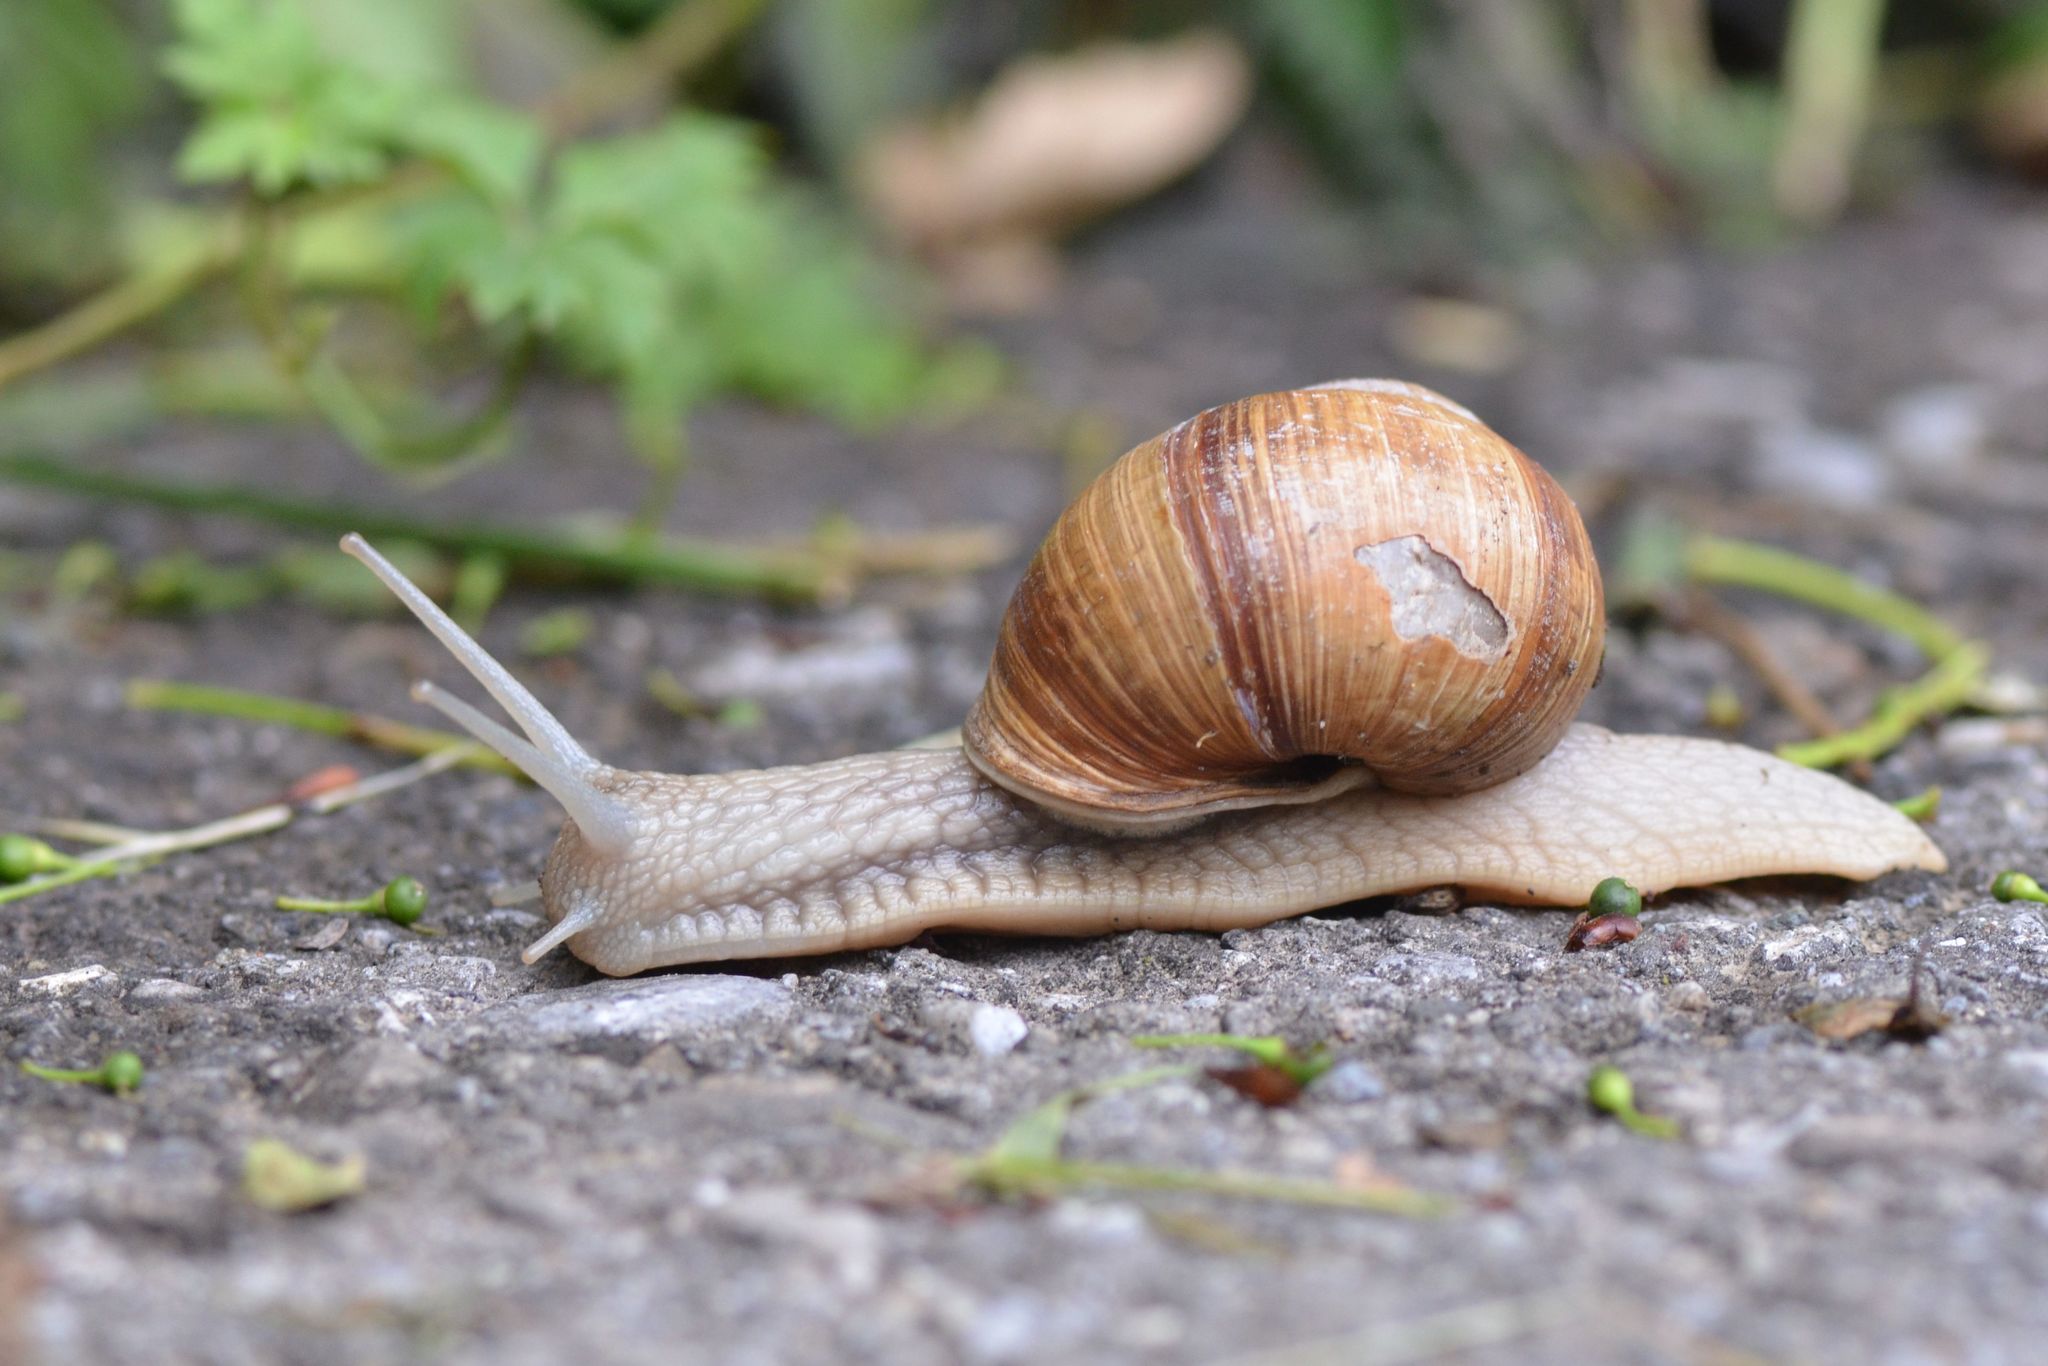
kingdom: Animalia
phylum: Mollusca
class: Gastropoda
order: Stylommatophora
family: Helicidae
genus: Helix
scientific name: Helix pomatia
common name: Roman snail
